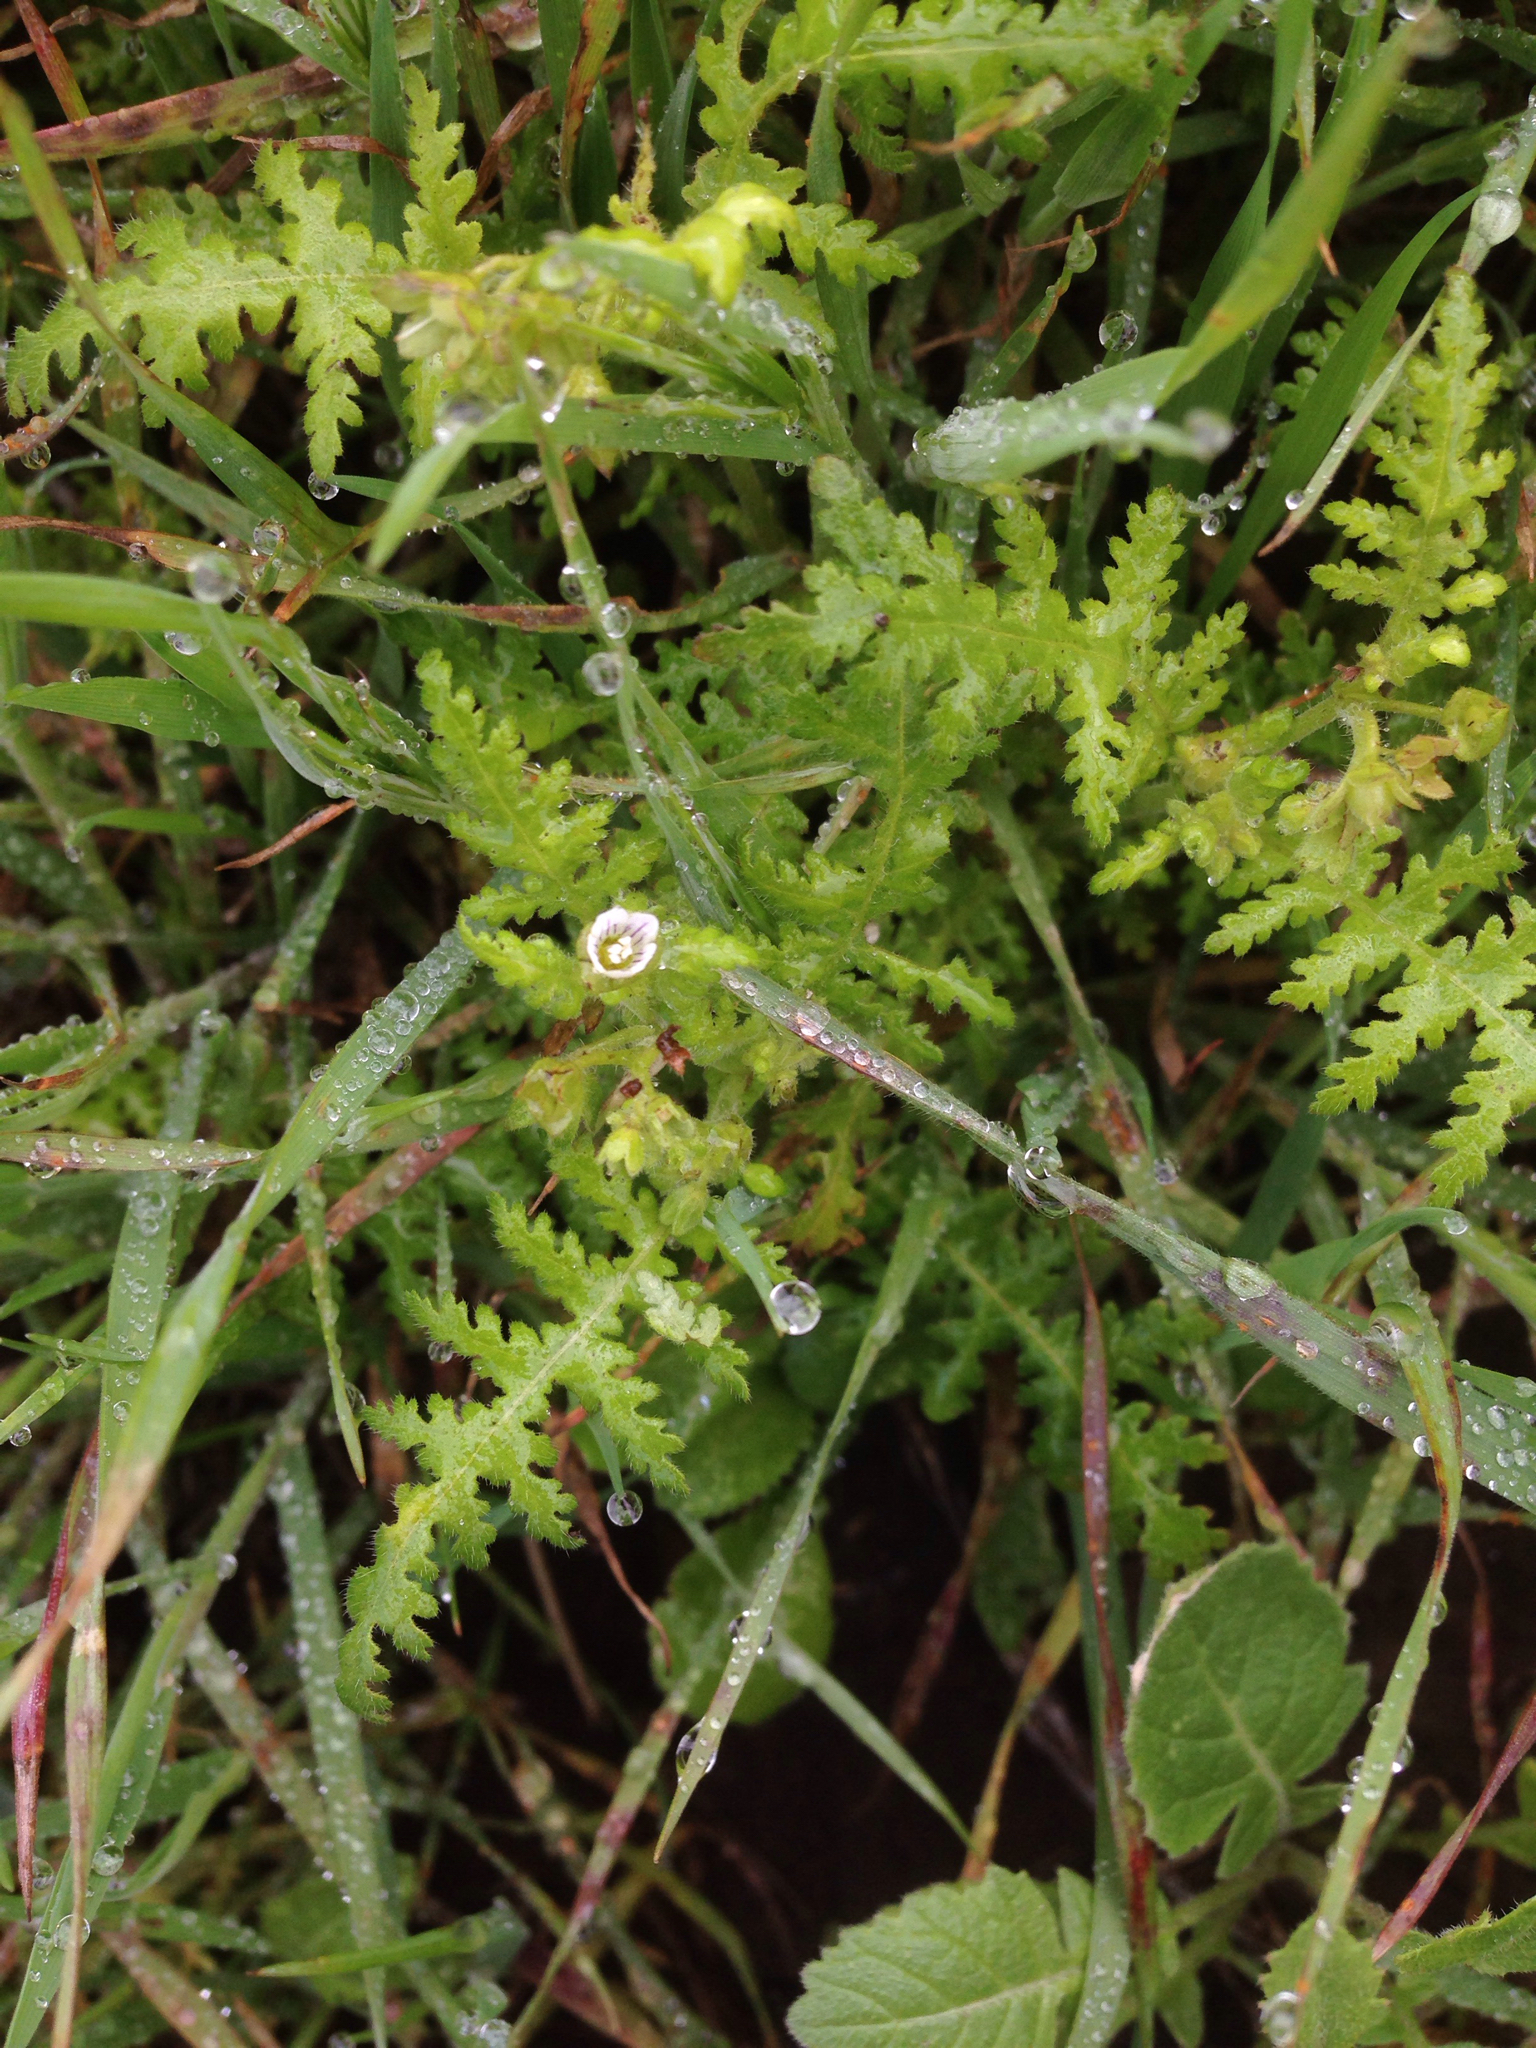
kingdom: Plantae
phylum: Tracheophyta
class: Magnoliopsida
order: Boraginales
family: Hydrophyllaceae
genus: Eucrypta
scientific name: Eucrypta chrysanthemifolia
